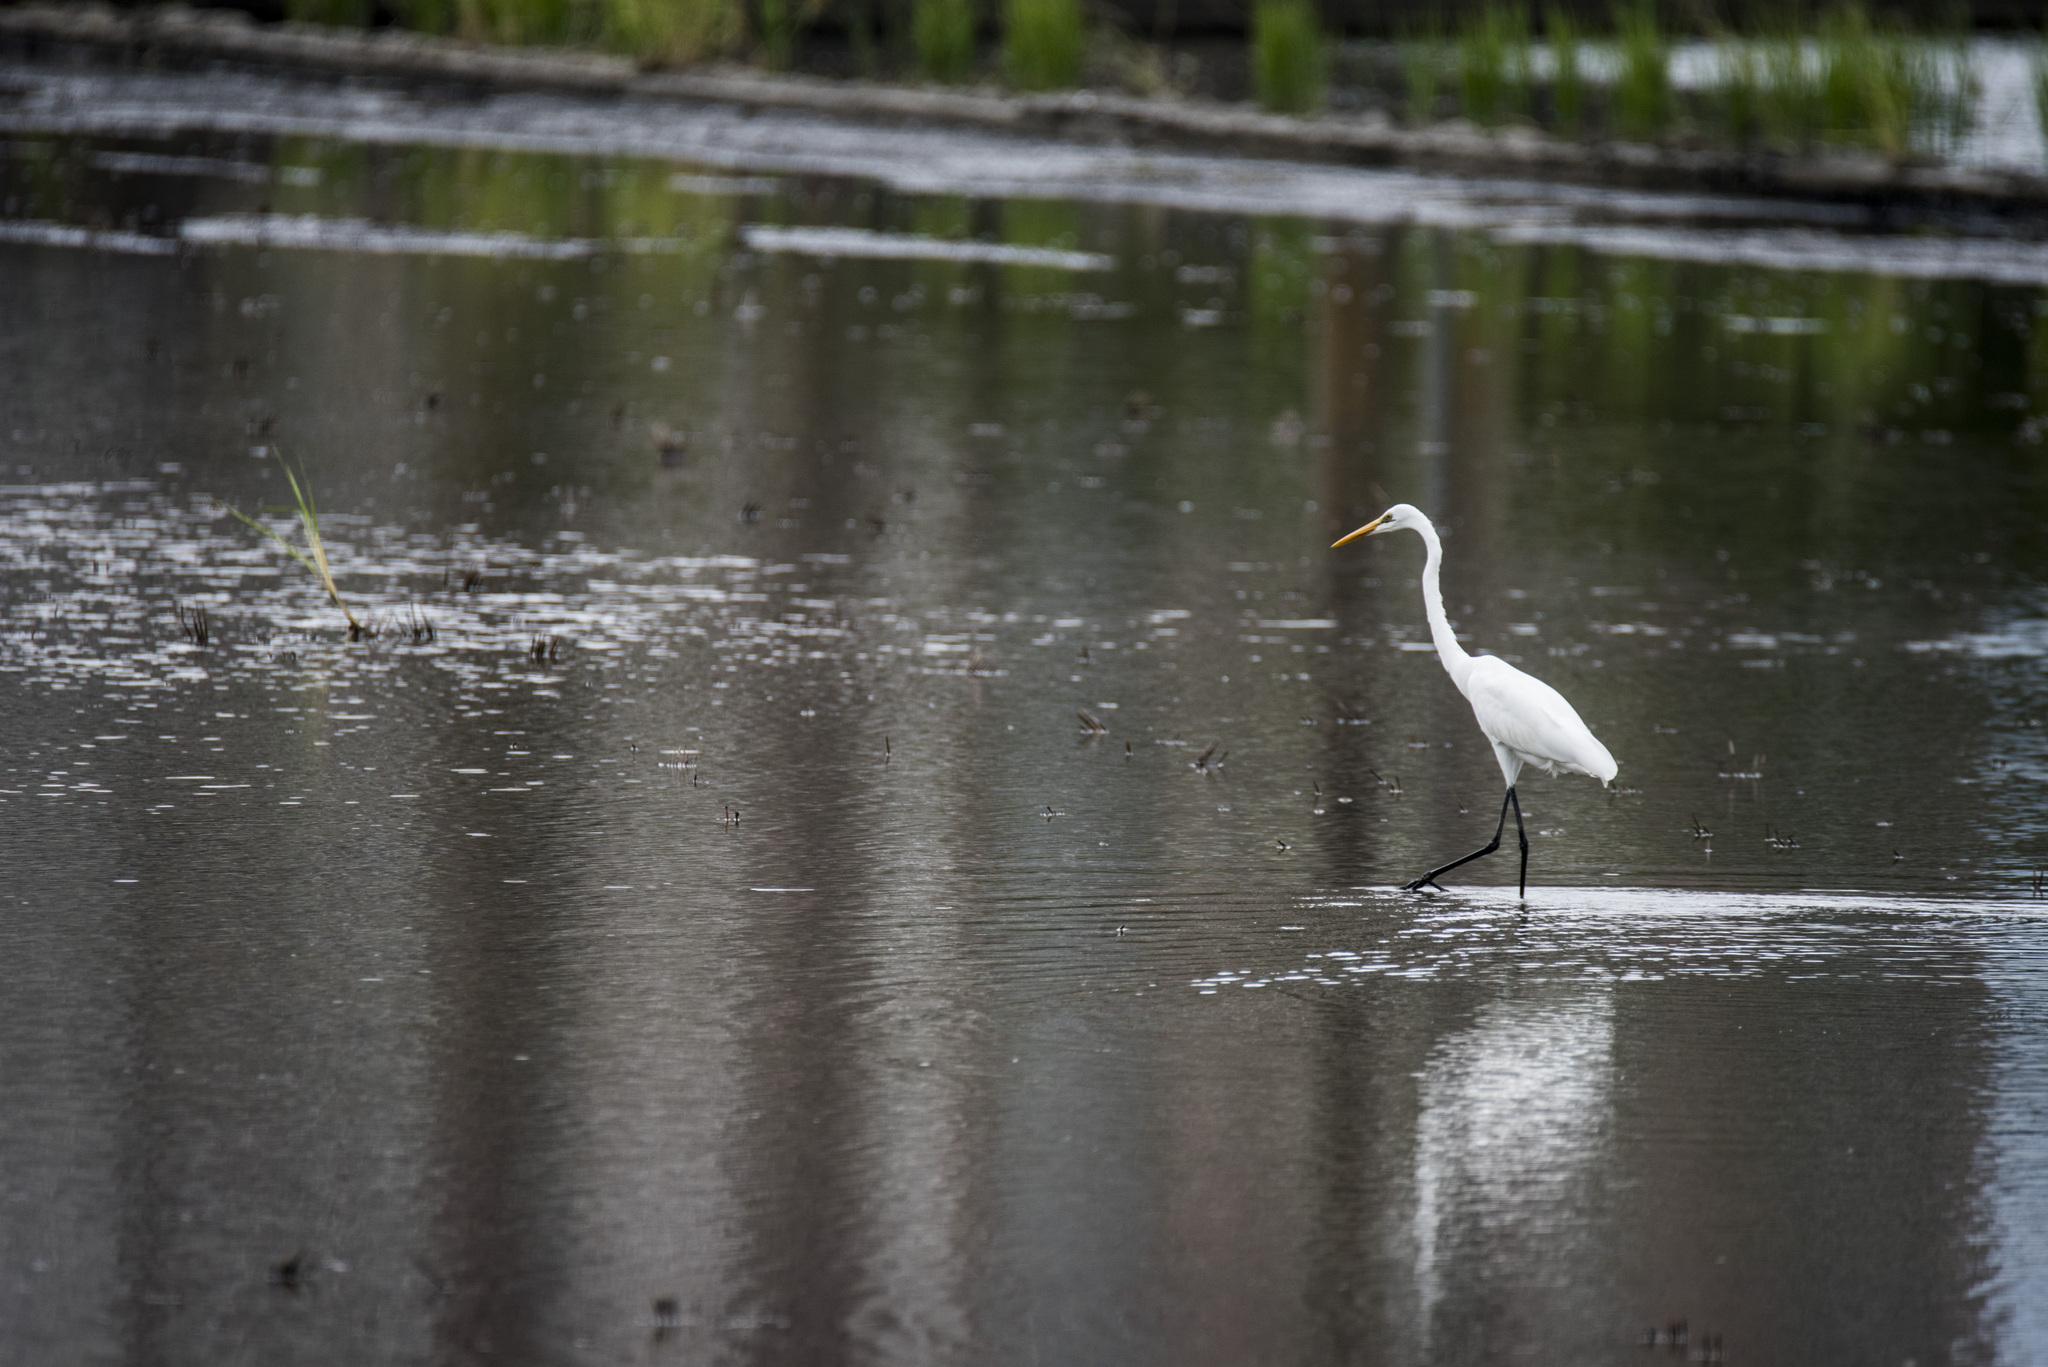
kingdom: Animalia
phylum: Chordata
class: Aves
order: Pelecaniformes
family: Ardeidae
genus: Ardea
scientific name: Ardea modesta
